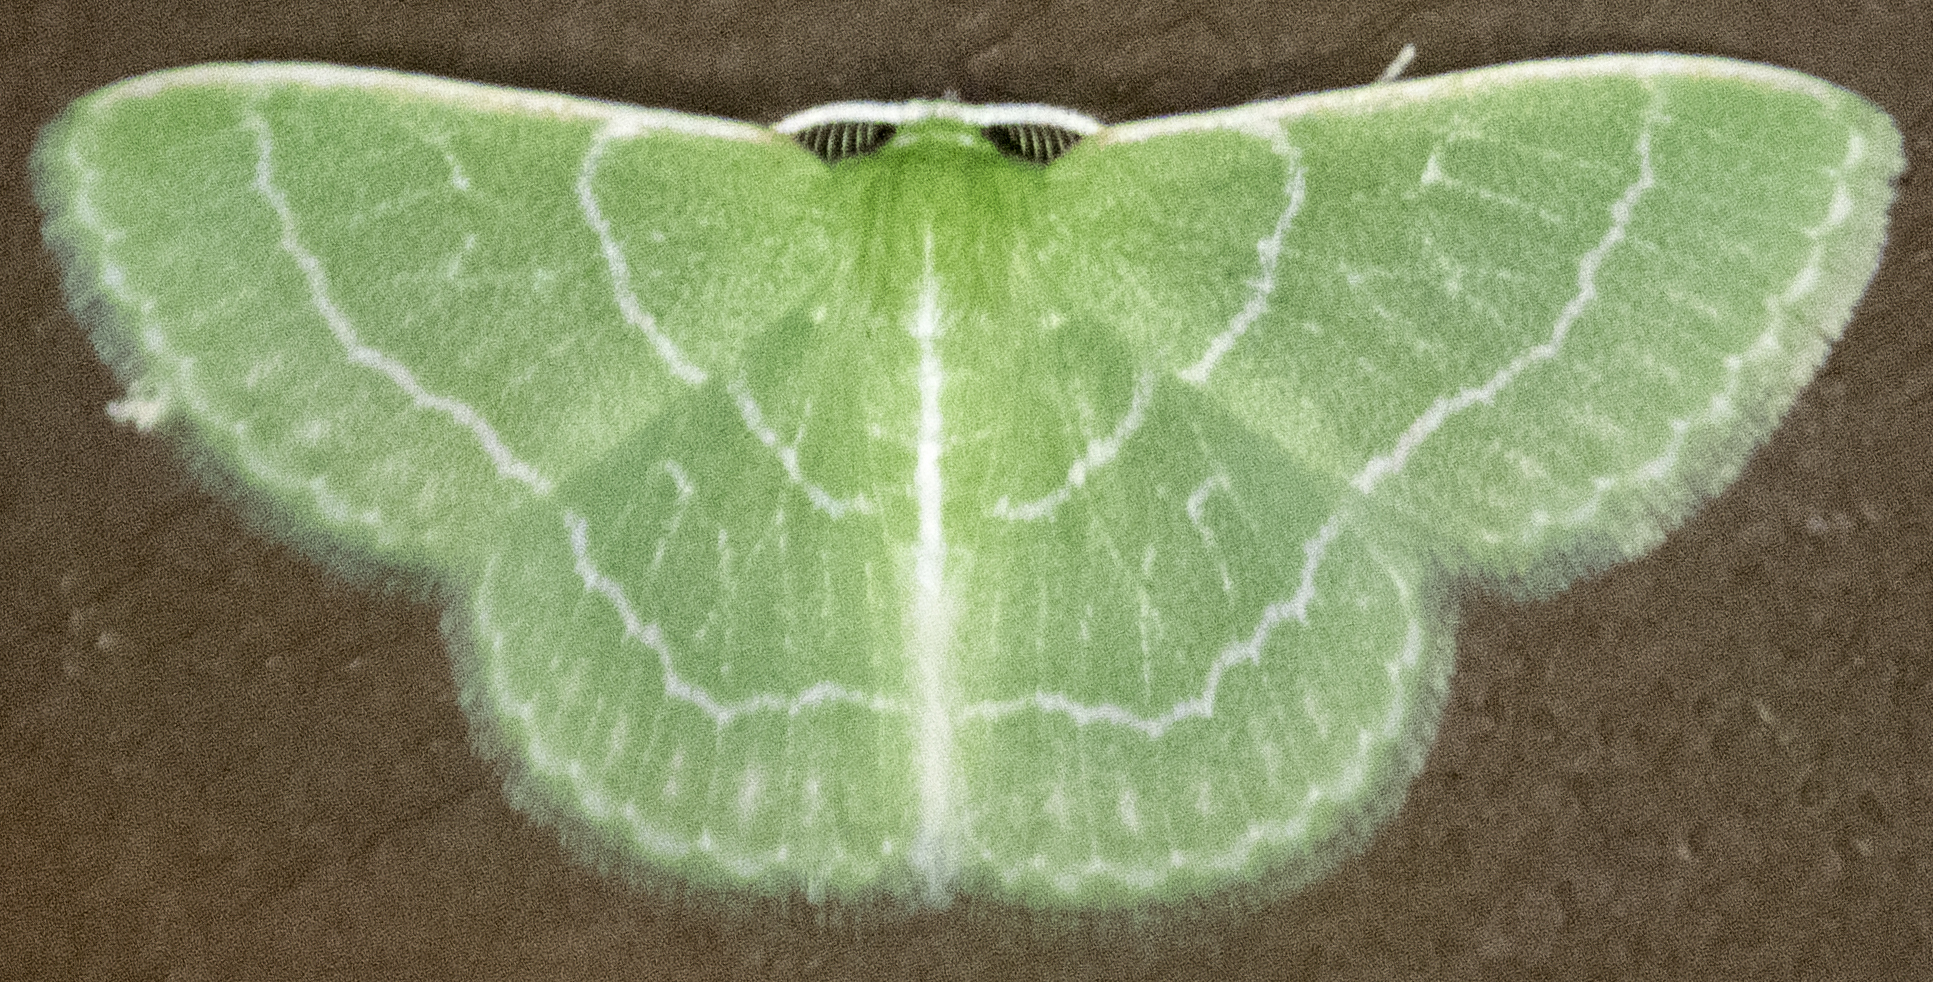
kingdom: Animalia
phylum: Arthropoda
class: Insecta
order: Lepidoptera
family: Geometridae
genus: Synchlora
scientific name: Synchlora aerata
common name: Wavy-lined emerald
